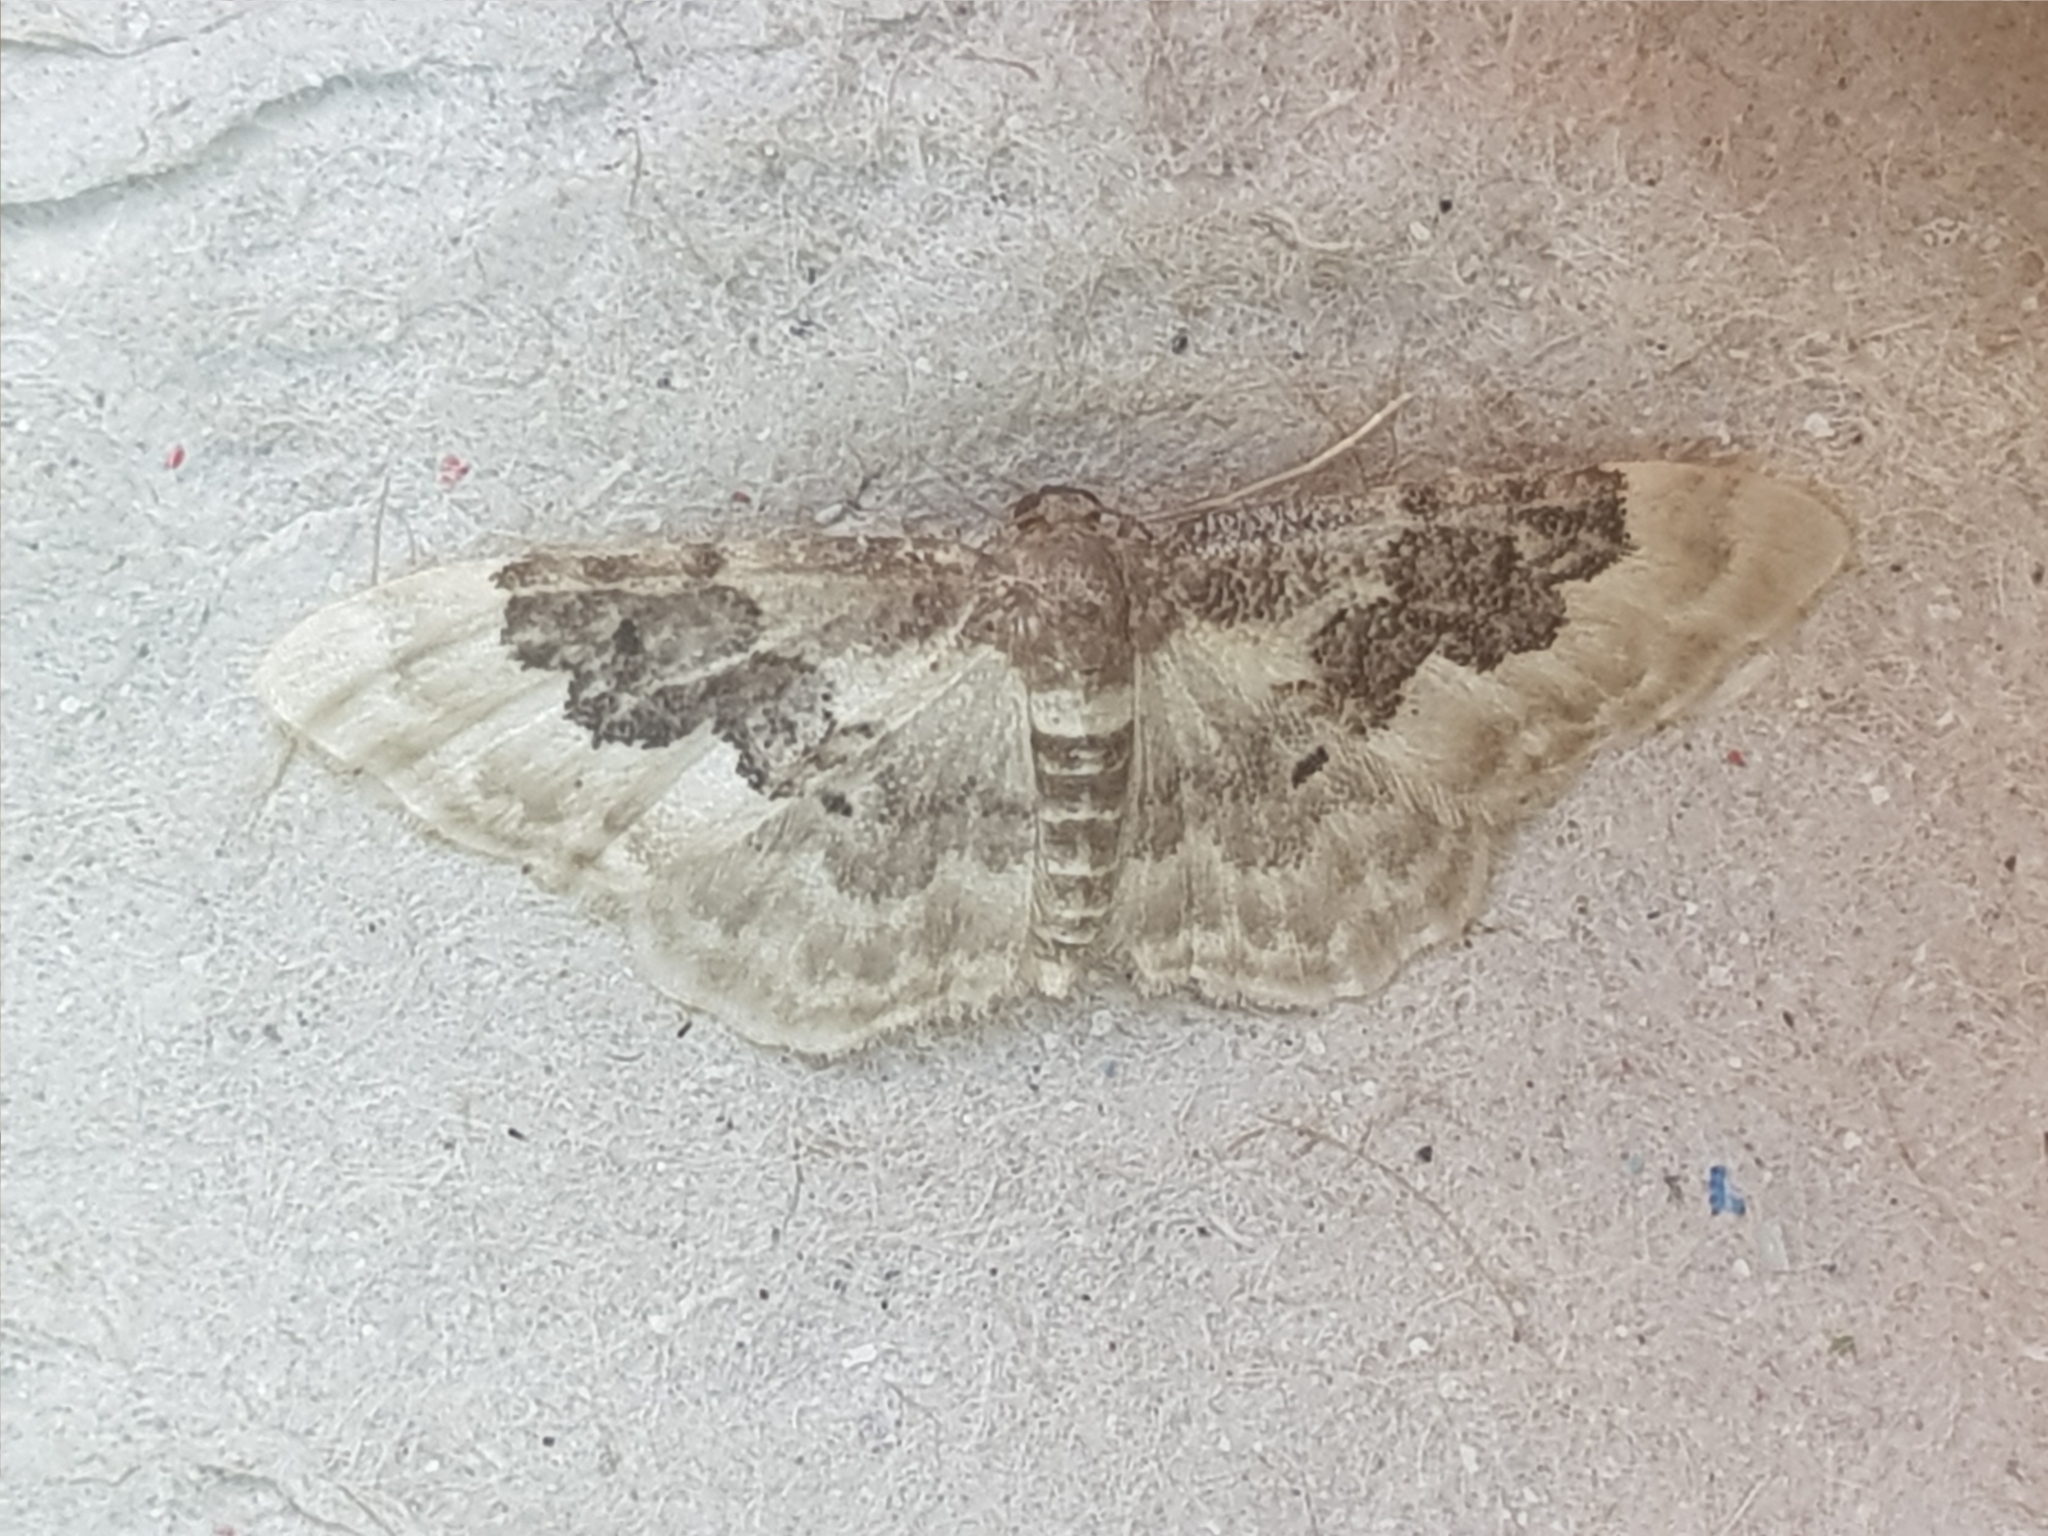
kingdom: Animalia
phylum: Arthropoda
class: Insecta
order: Lepidoptera
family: Geometridae
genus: Idaea
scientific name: Idaea rusticata
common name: Least carpet
